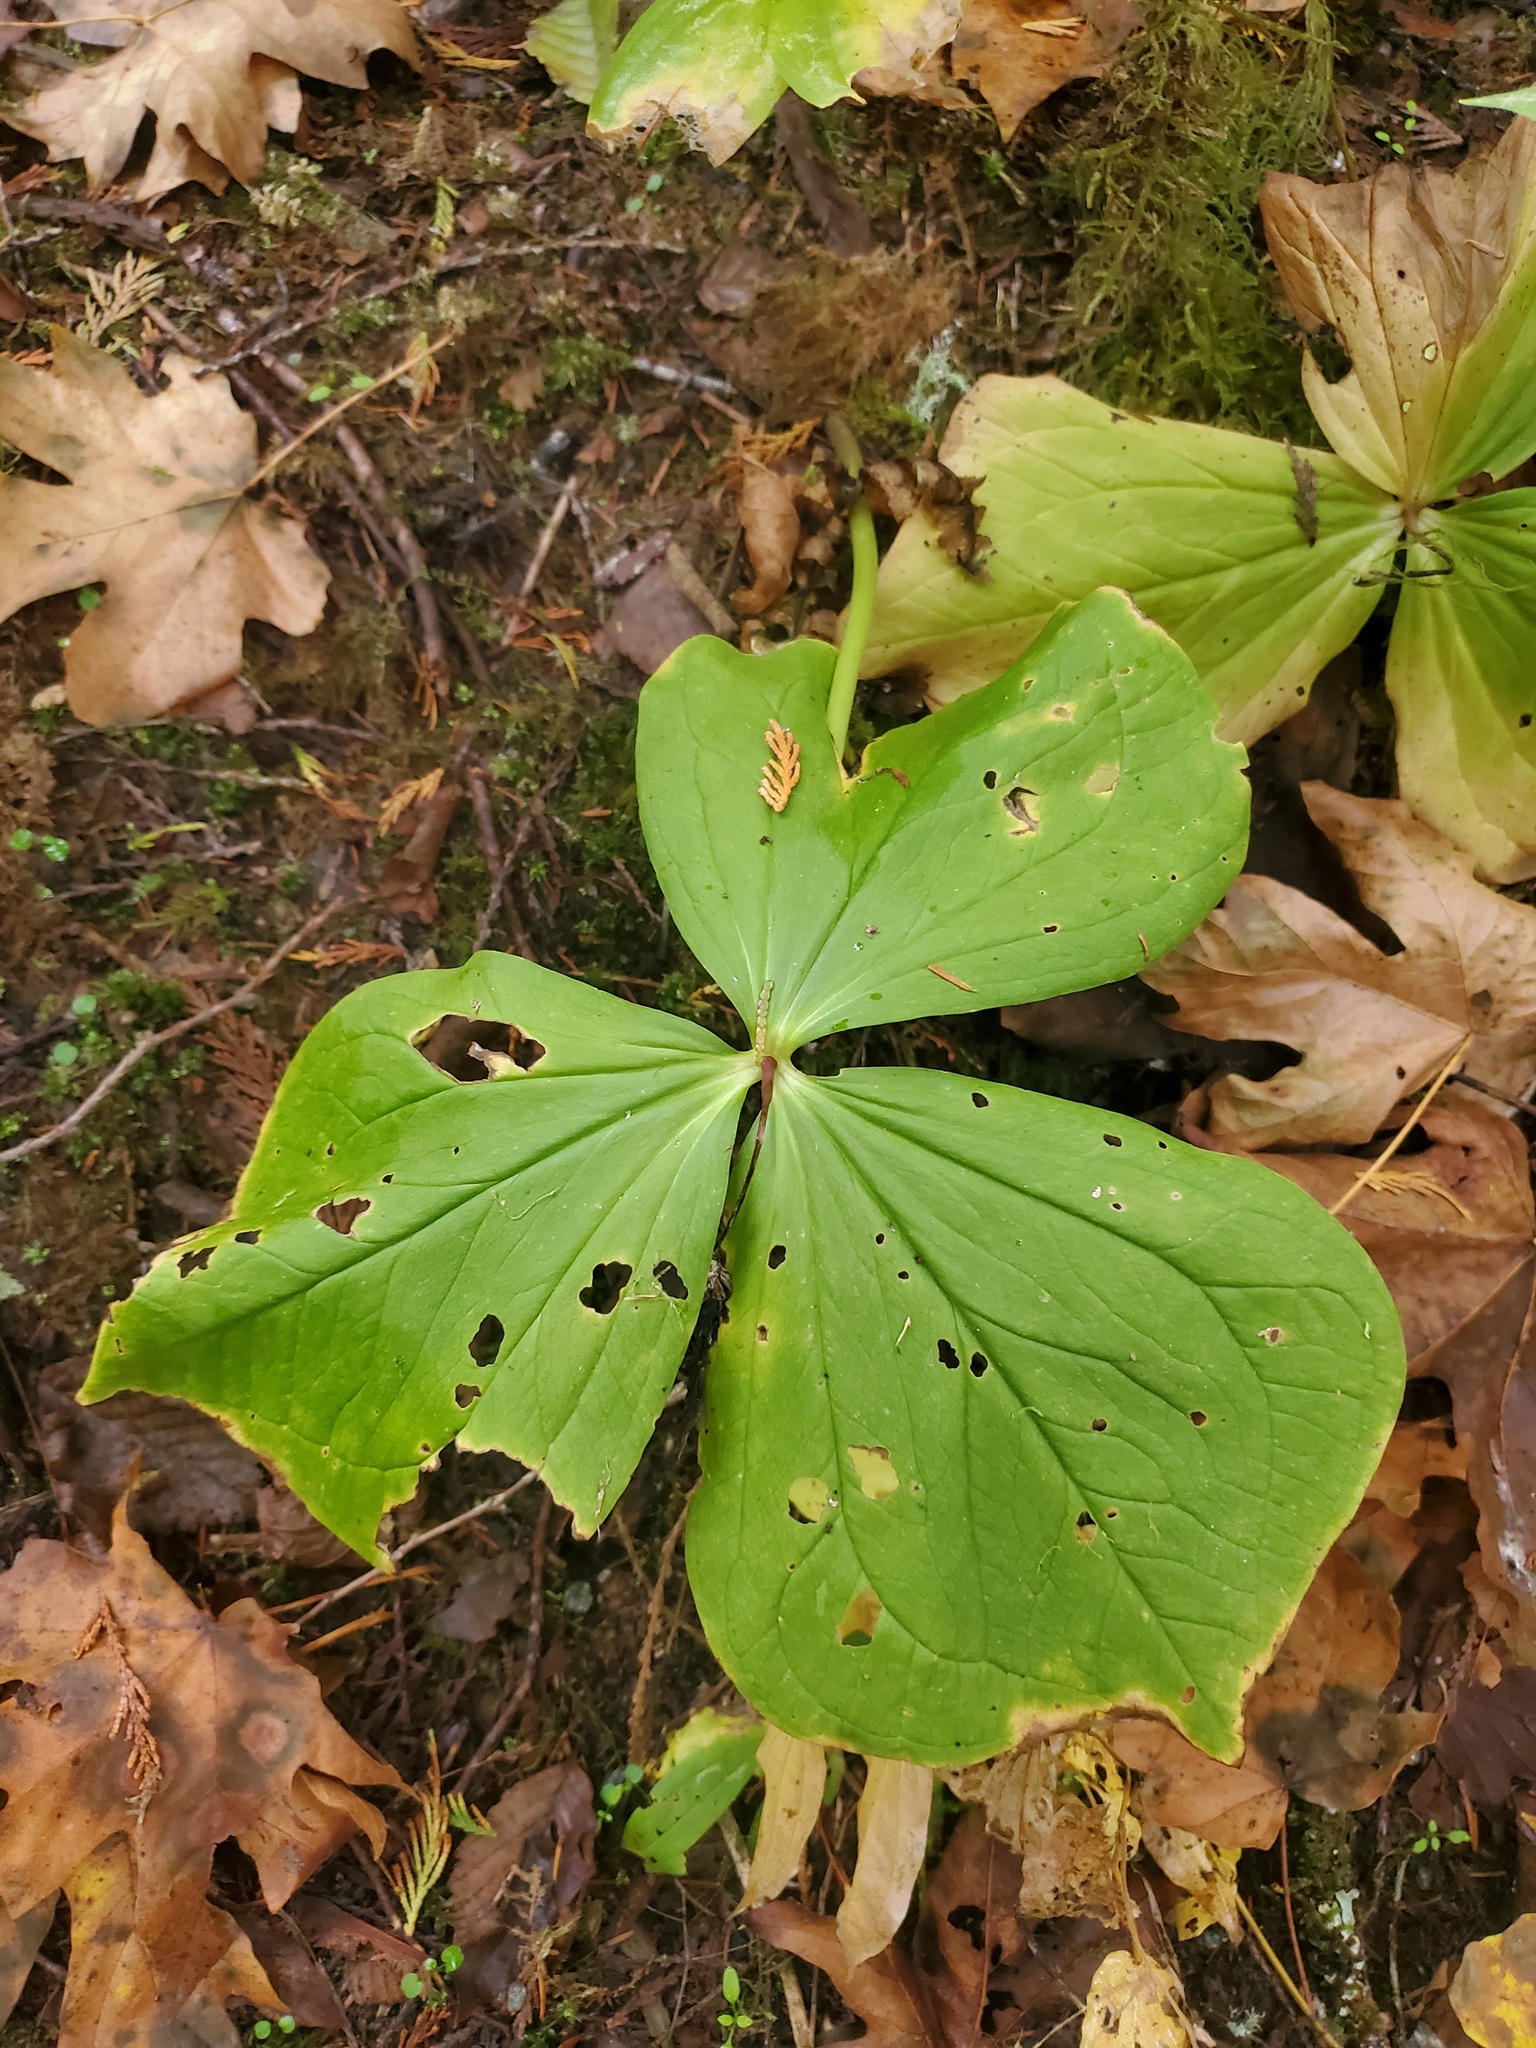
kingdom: Plantae
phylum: Tracheophyta
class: Liliopsida
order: Liliales
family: Melanthiaceae
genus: Trillium
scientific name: Trillium ovatum
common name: Pacific trillium
